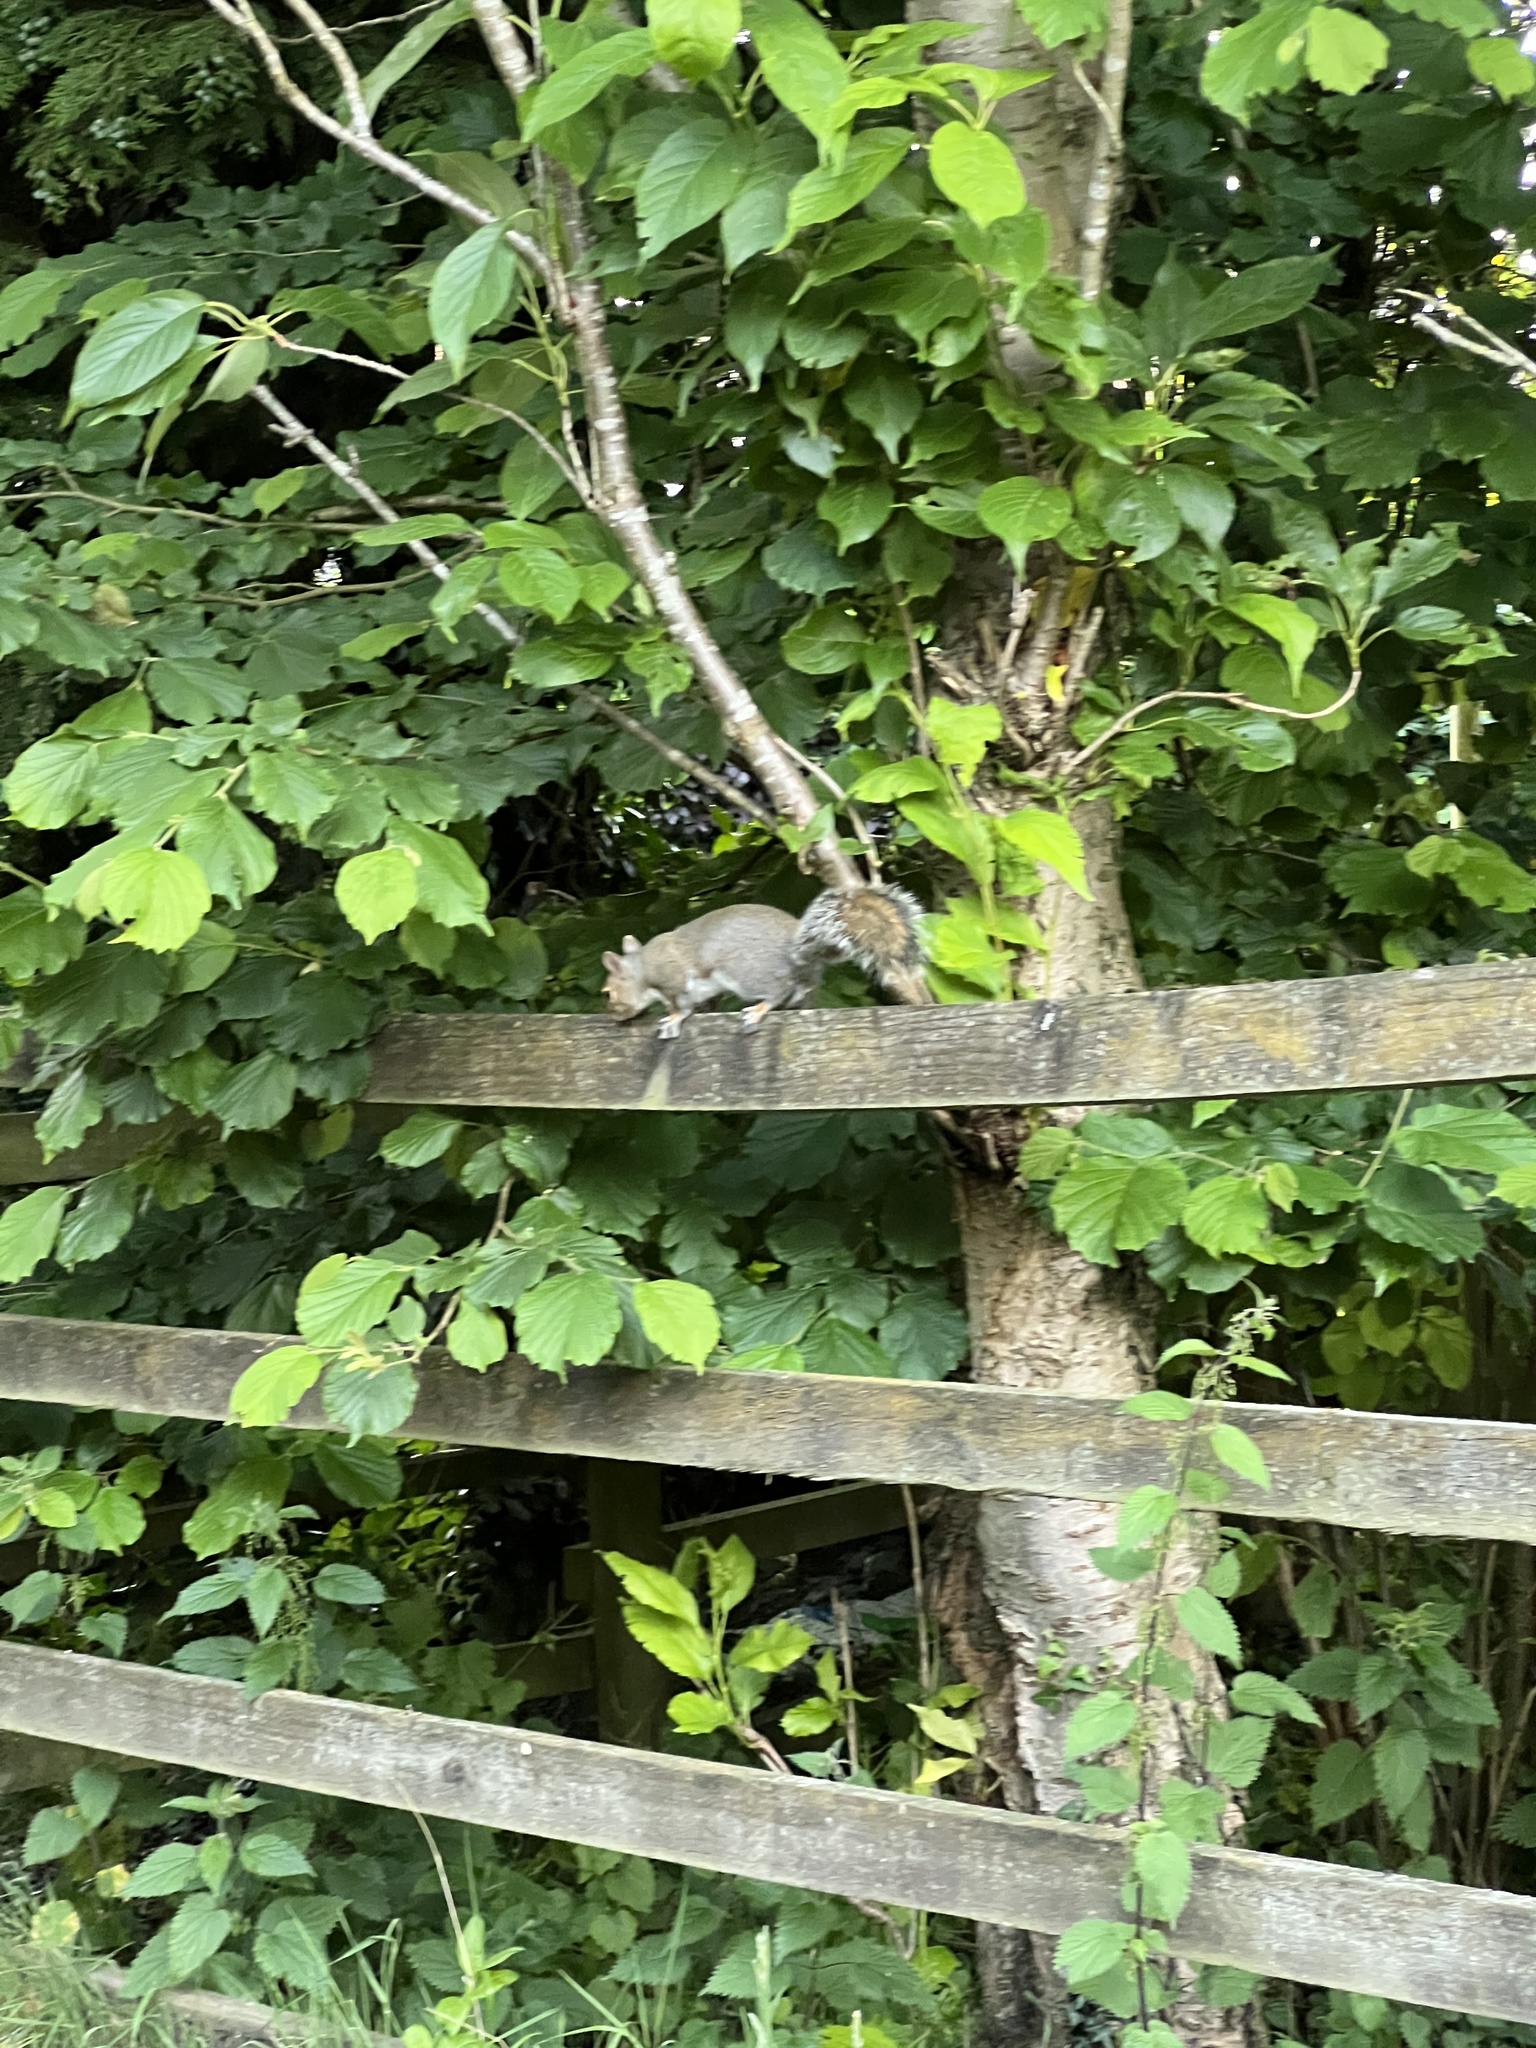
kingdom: Animalia
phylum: Chordata
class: Mammalia
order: Rodentia
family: Sciuridae
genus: Sciurus
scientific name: Sciurus carolinensis
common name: Eastern gray squirrel
